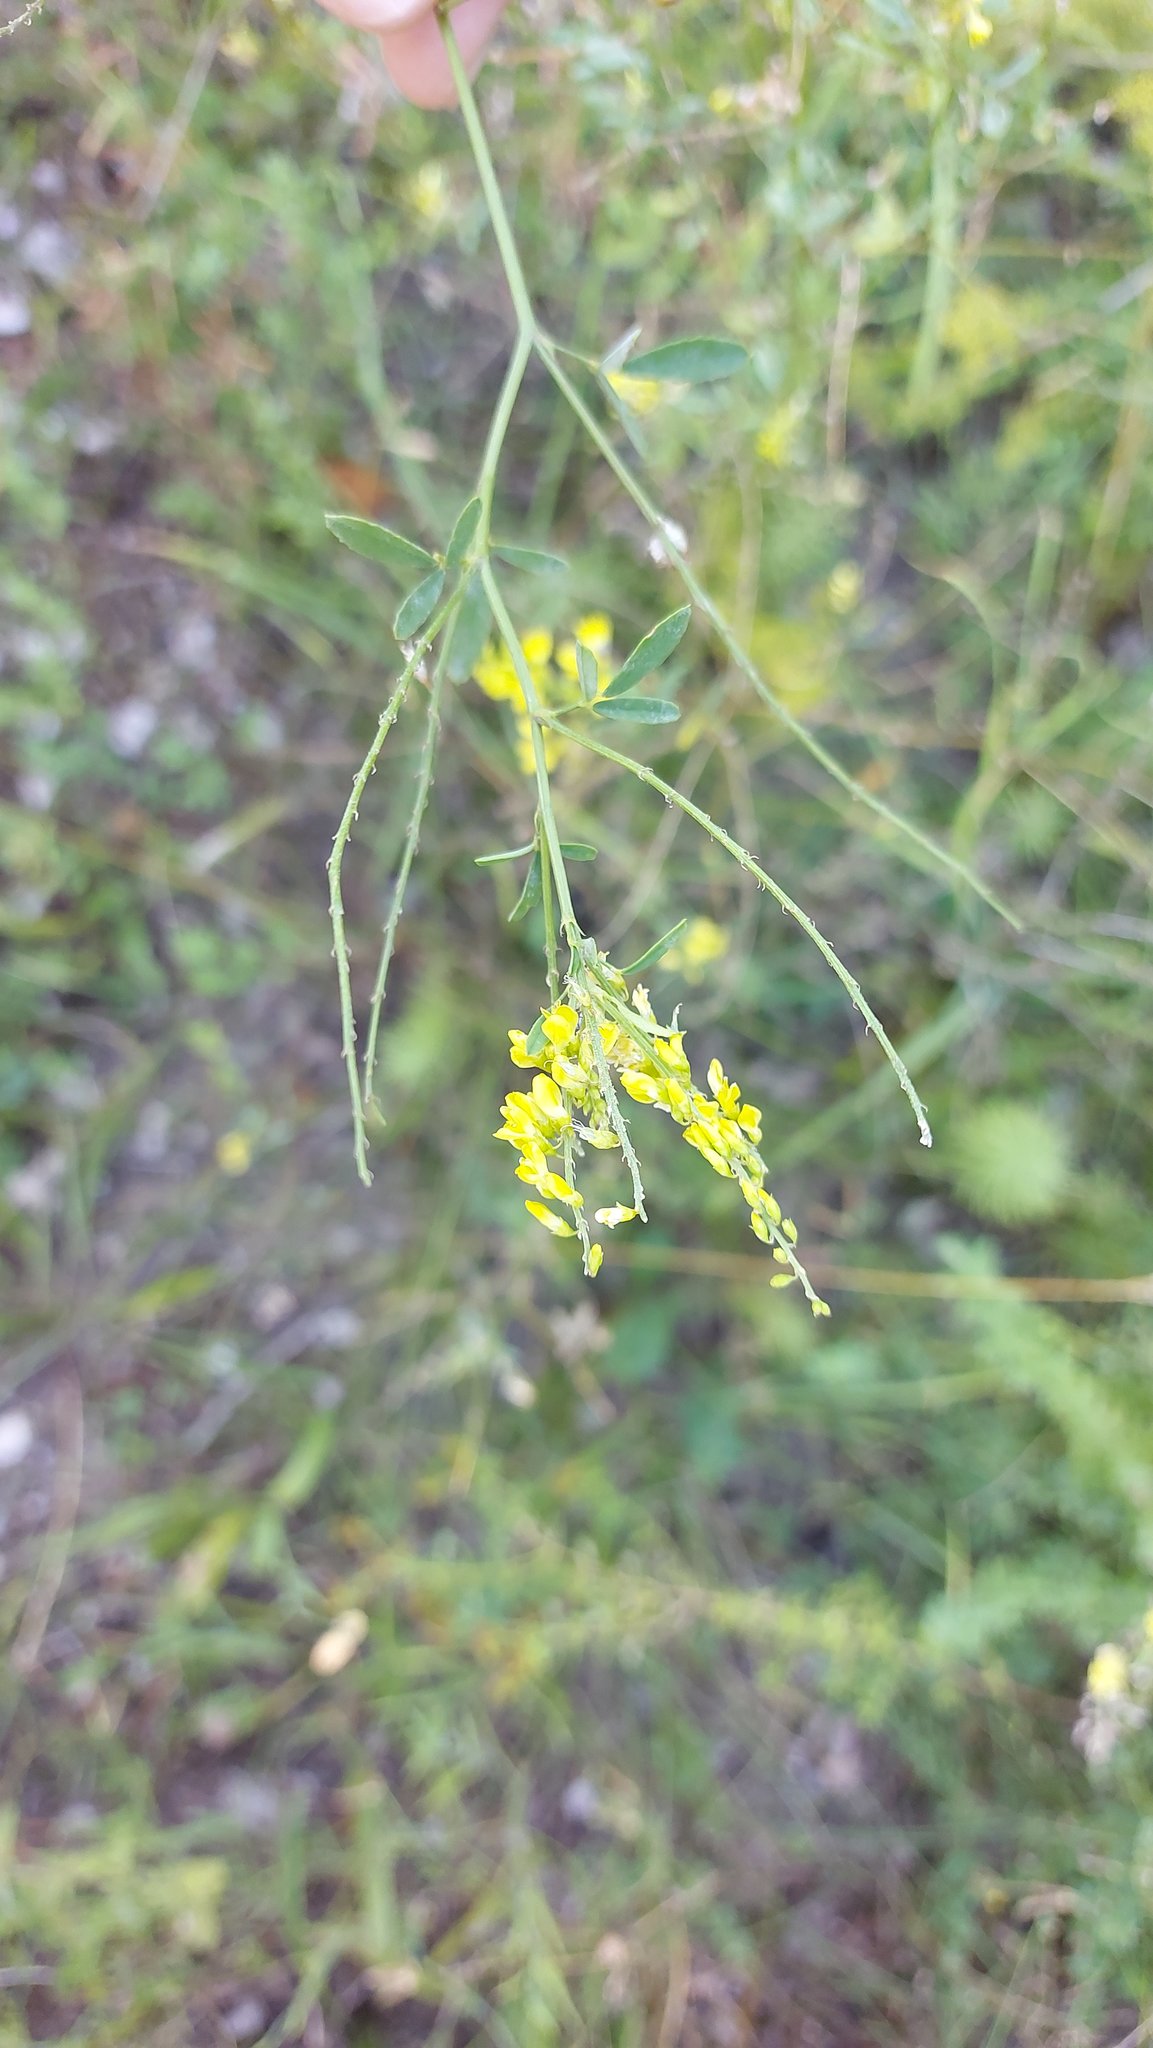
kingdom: Plantae
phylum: Tracheophyta
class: Magnoliopsida
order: Fabales
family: Fabaceae
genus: Melilotus
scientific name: Melilotus officinalis
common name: Sweetclover
